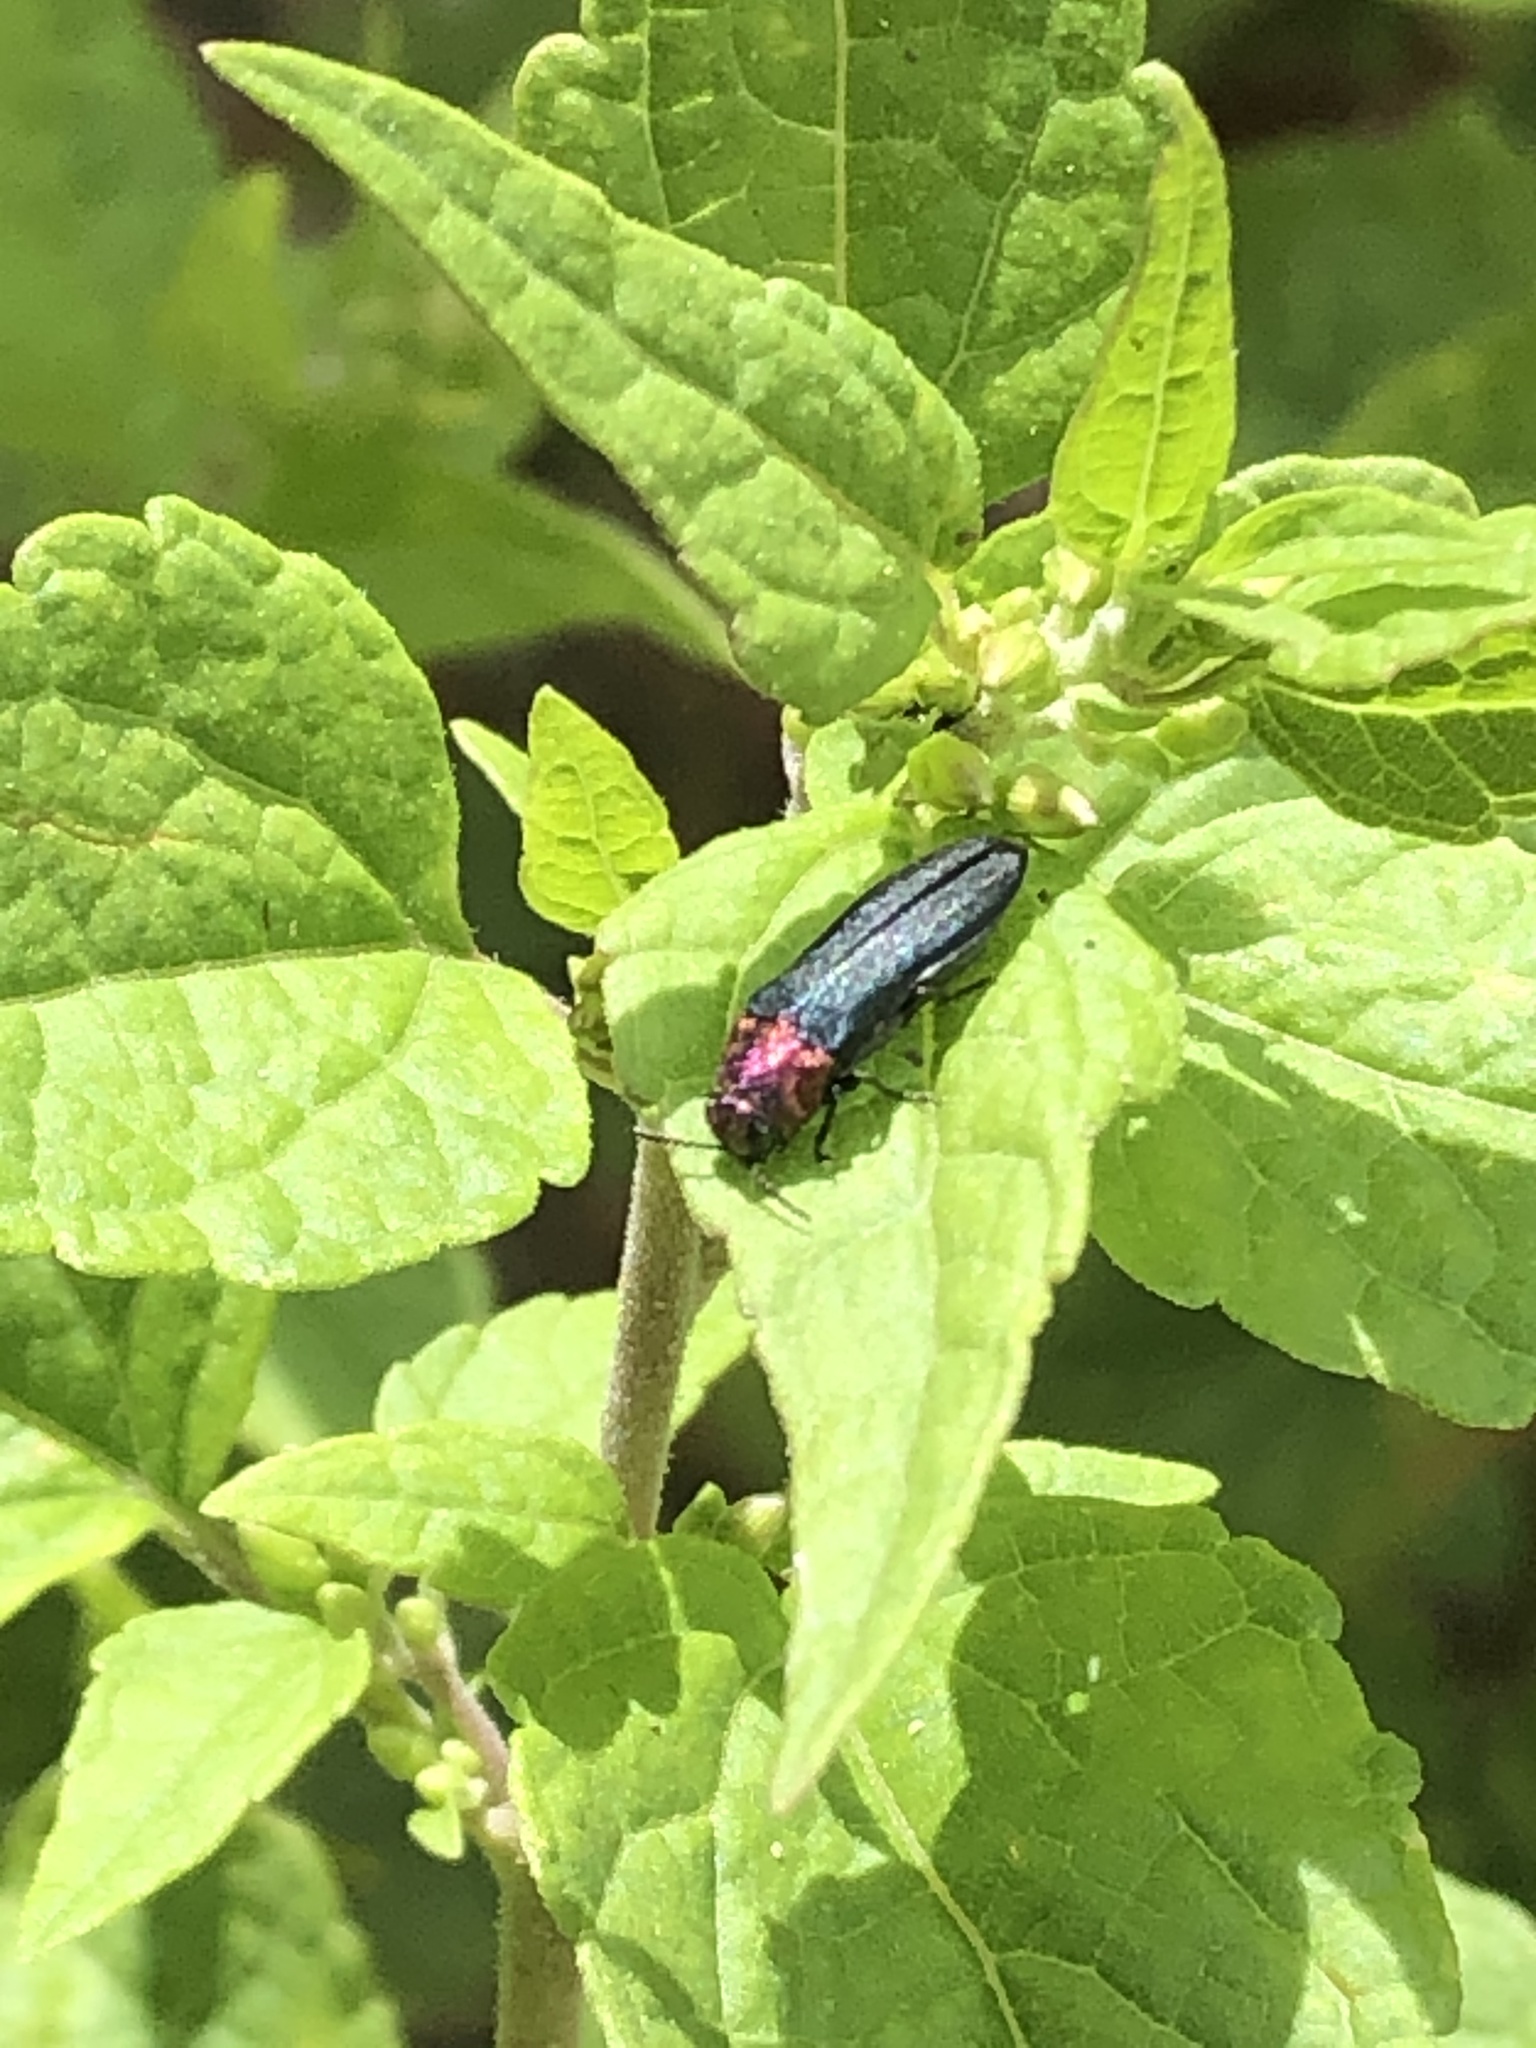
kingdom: Animalia
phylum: Arthropoda
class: Insecta
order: Coleoptera
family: Buprestidae
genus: Agrilus
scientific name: Agrilus huachucae
